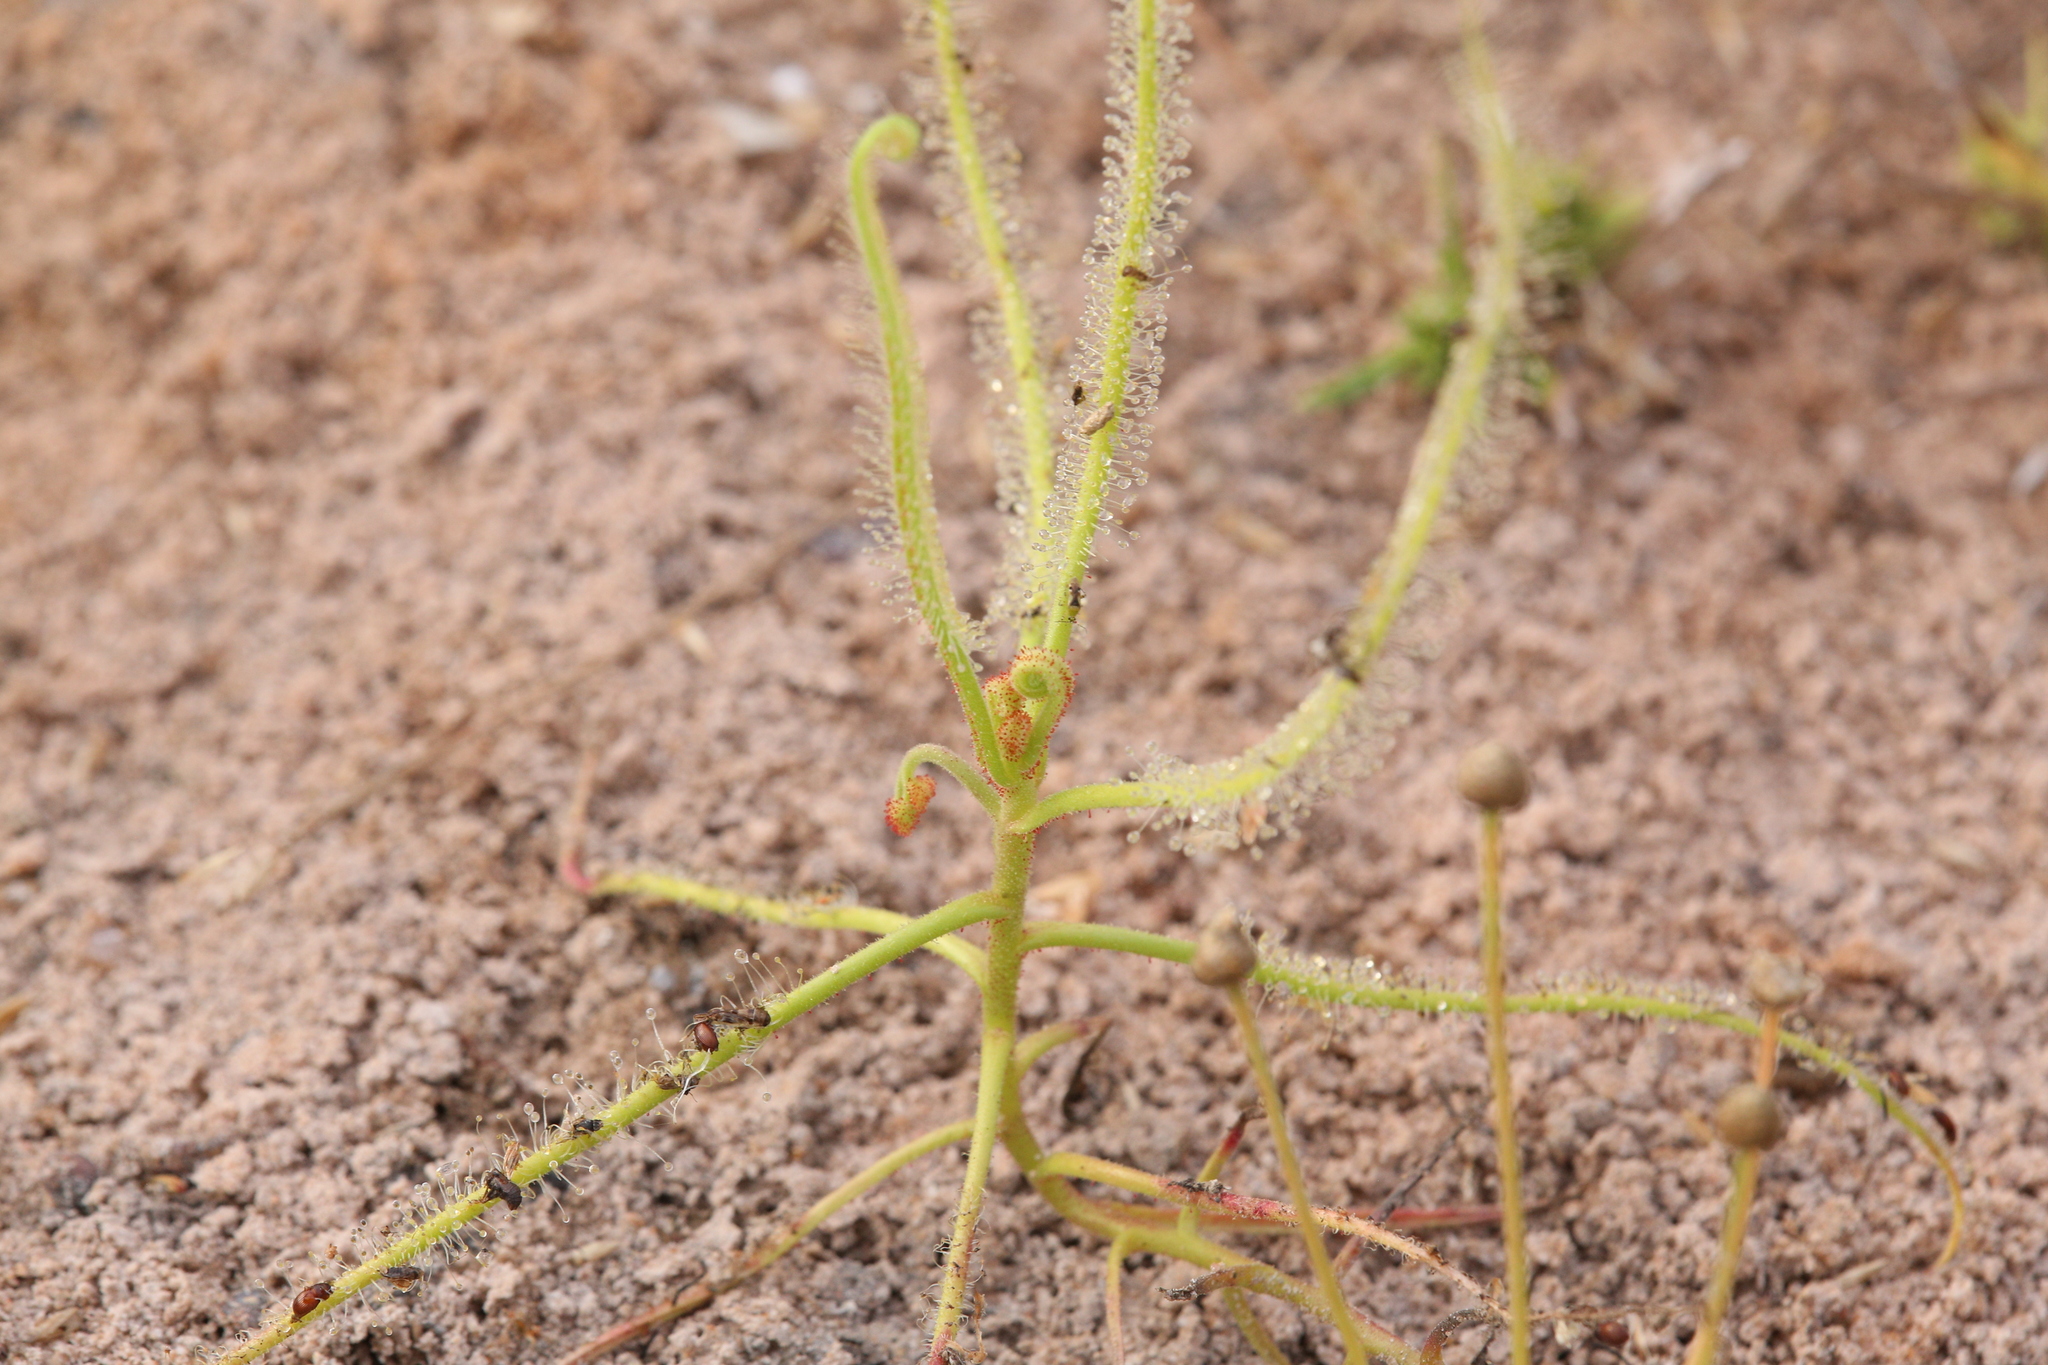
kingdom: Plantae
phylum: Tracheophyta
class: Magnoliopsida
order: Caryophyllales
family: Droseraceae
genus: Drosera
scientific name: Drosera indica
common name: Indian sundew
